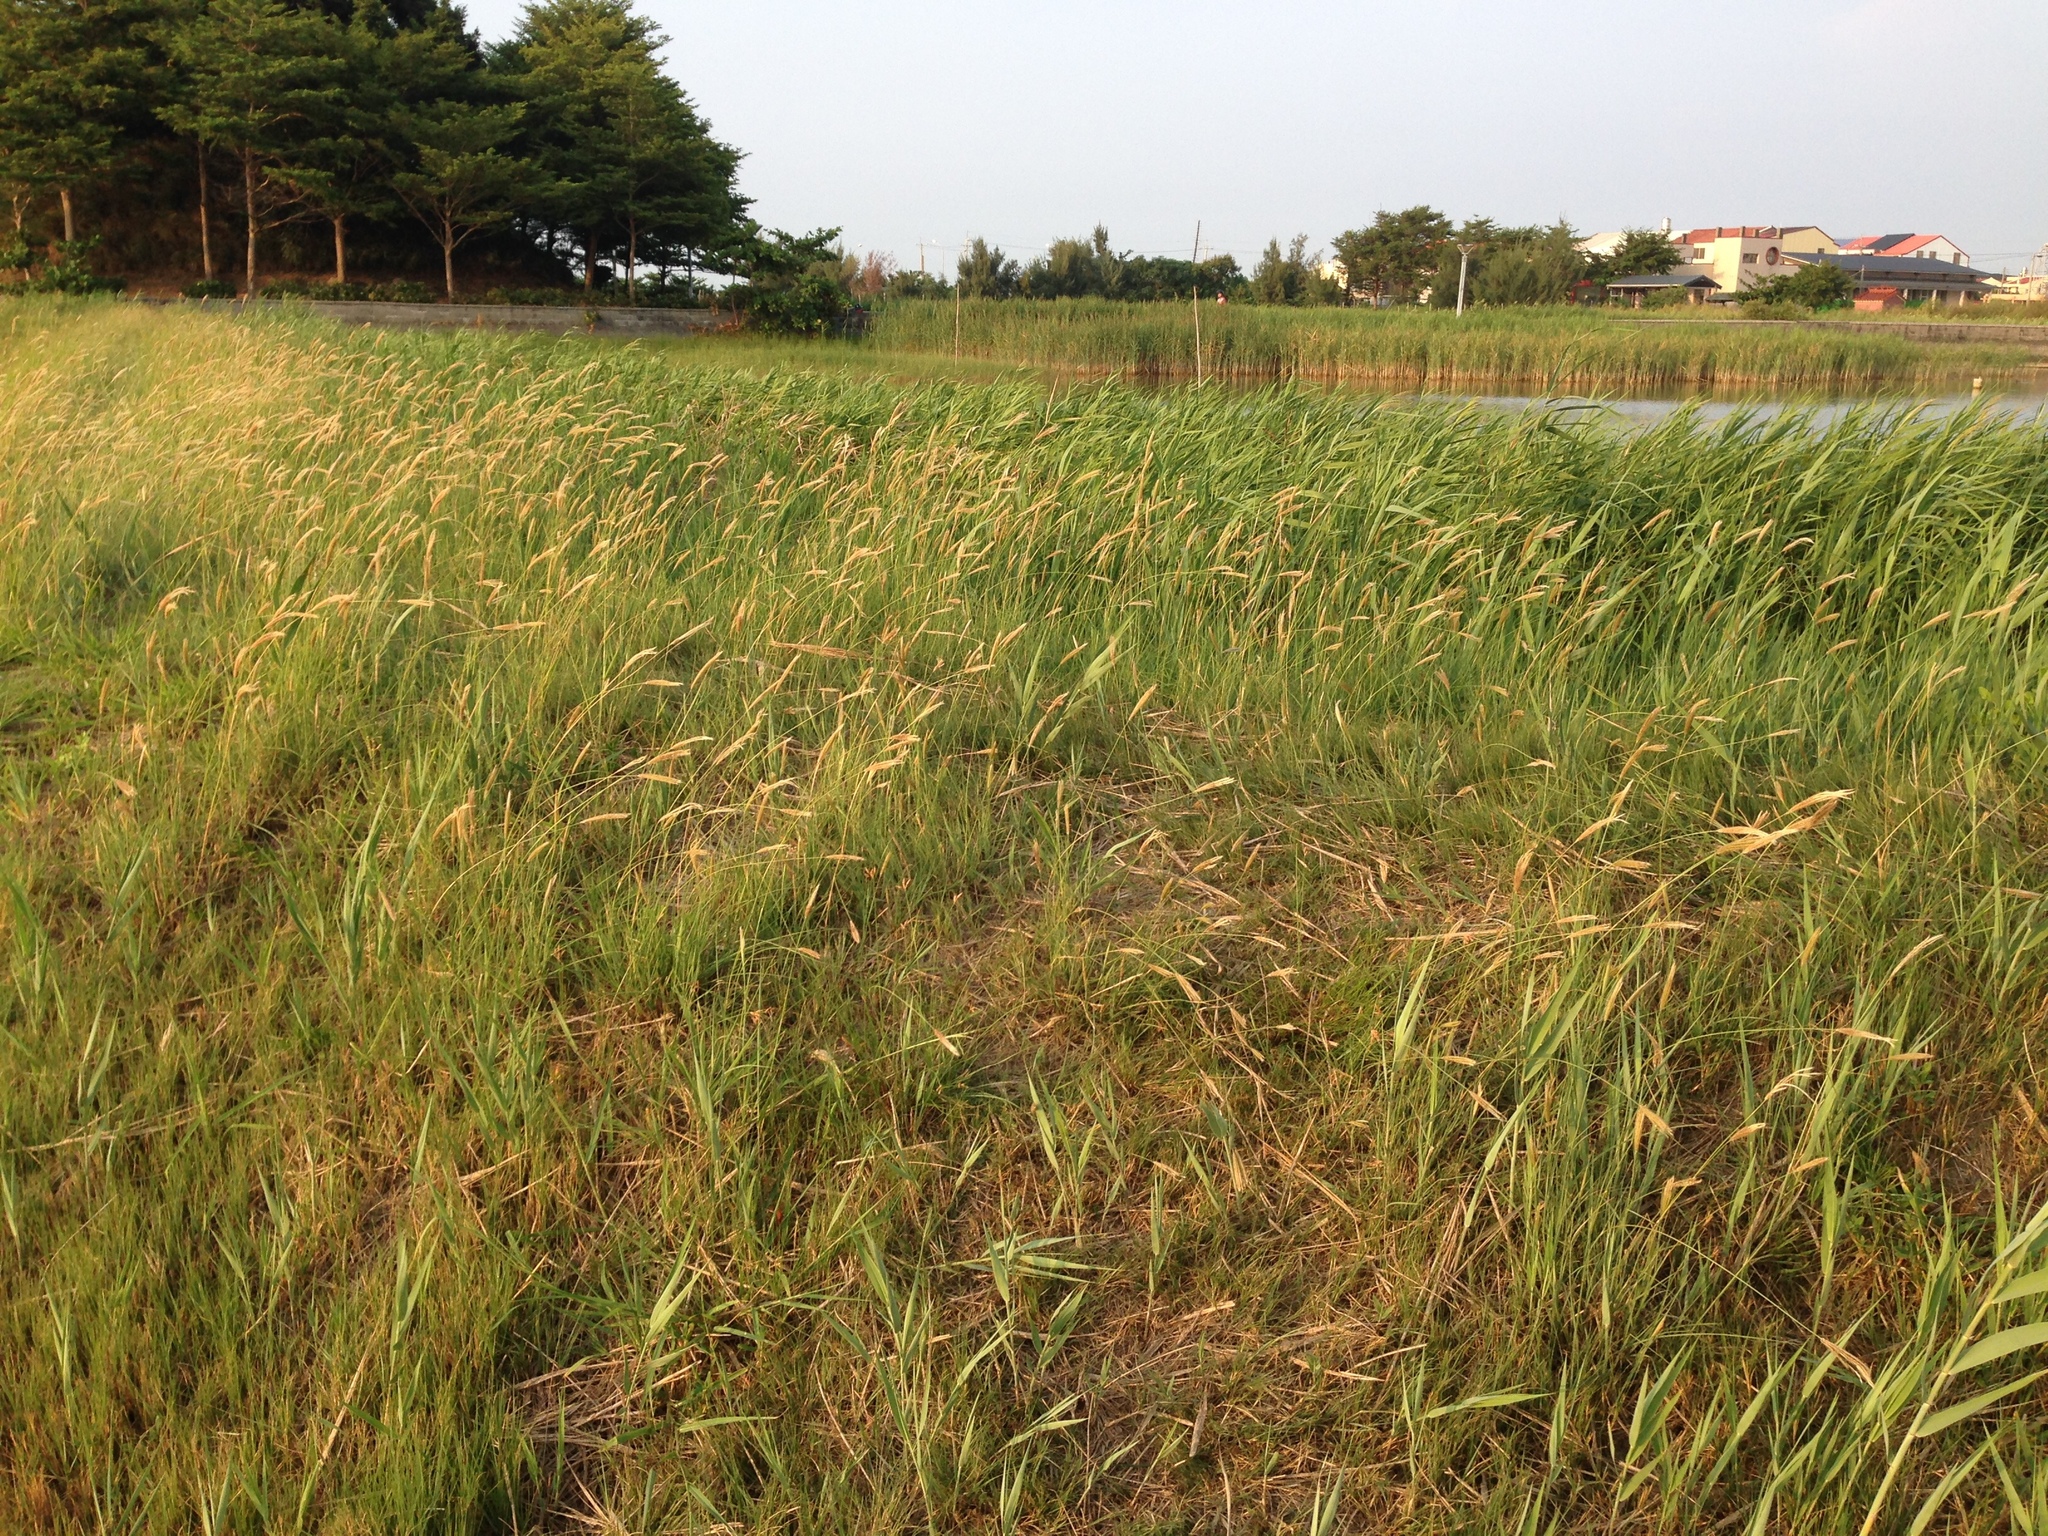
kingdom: Plantae
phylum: Tracheophyta
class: Liliopsida
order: Poales
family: Poaceae
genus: Chloris
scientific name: Chloris formosana
